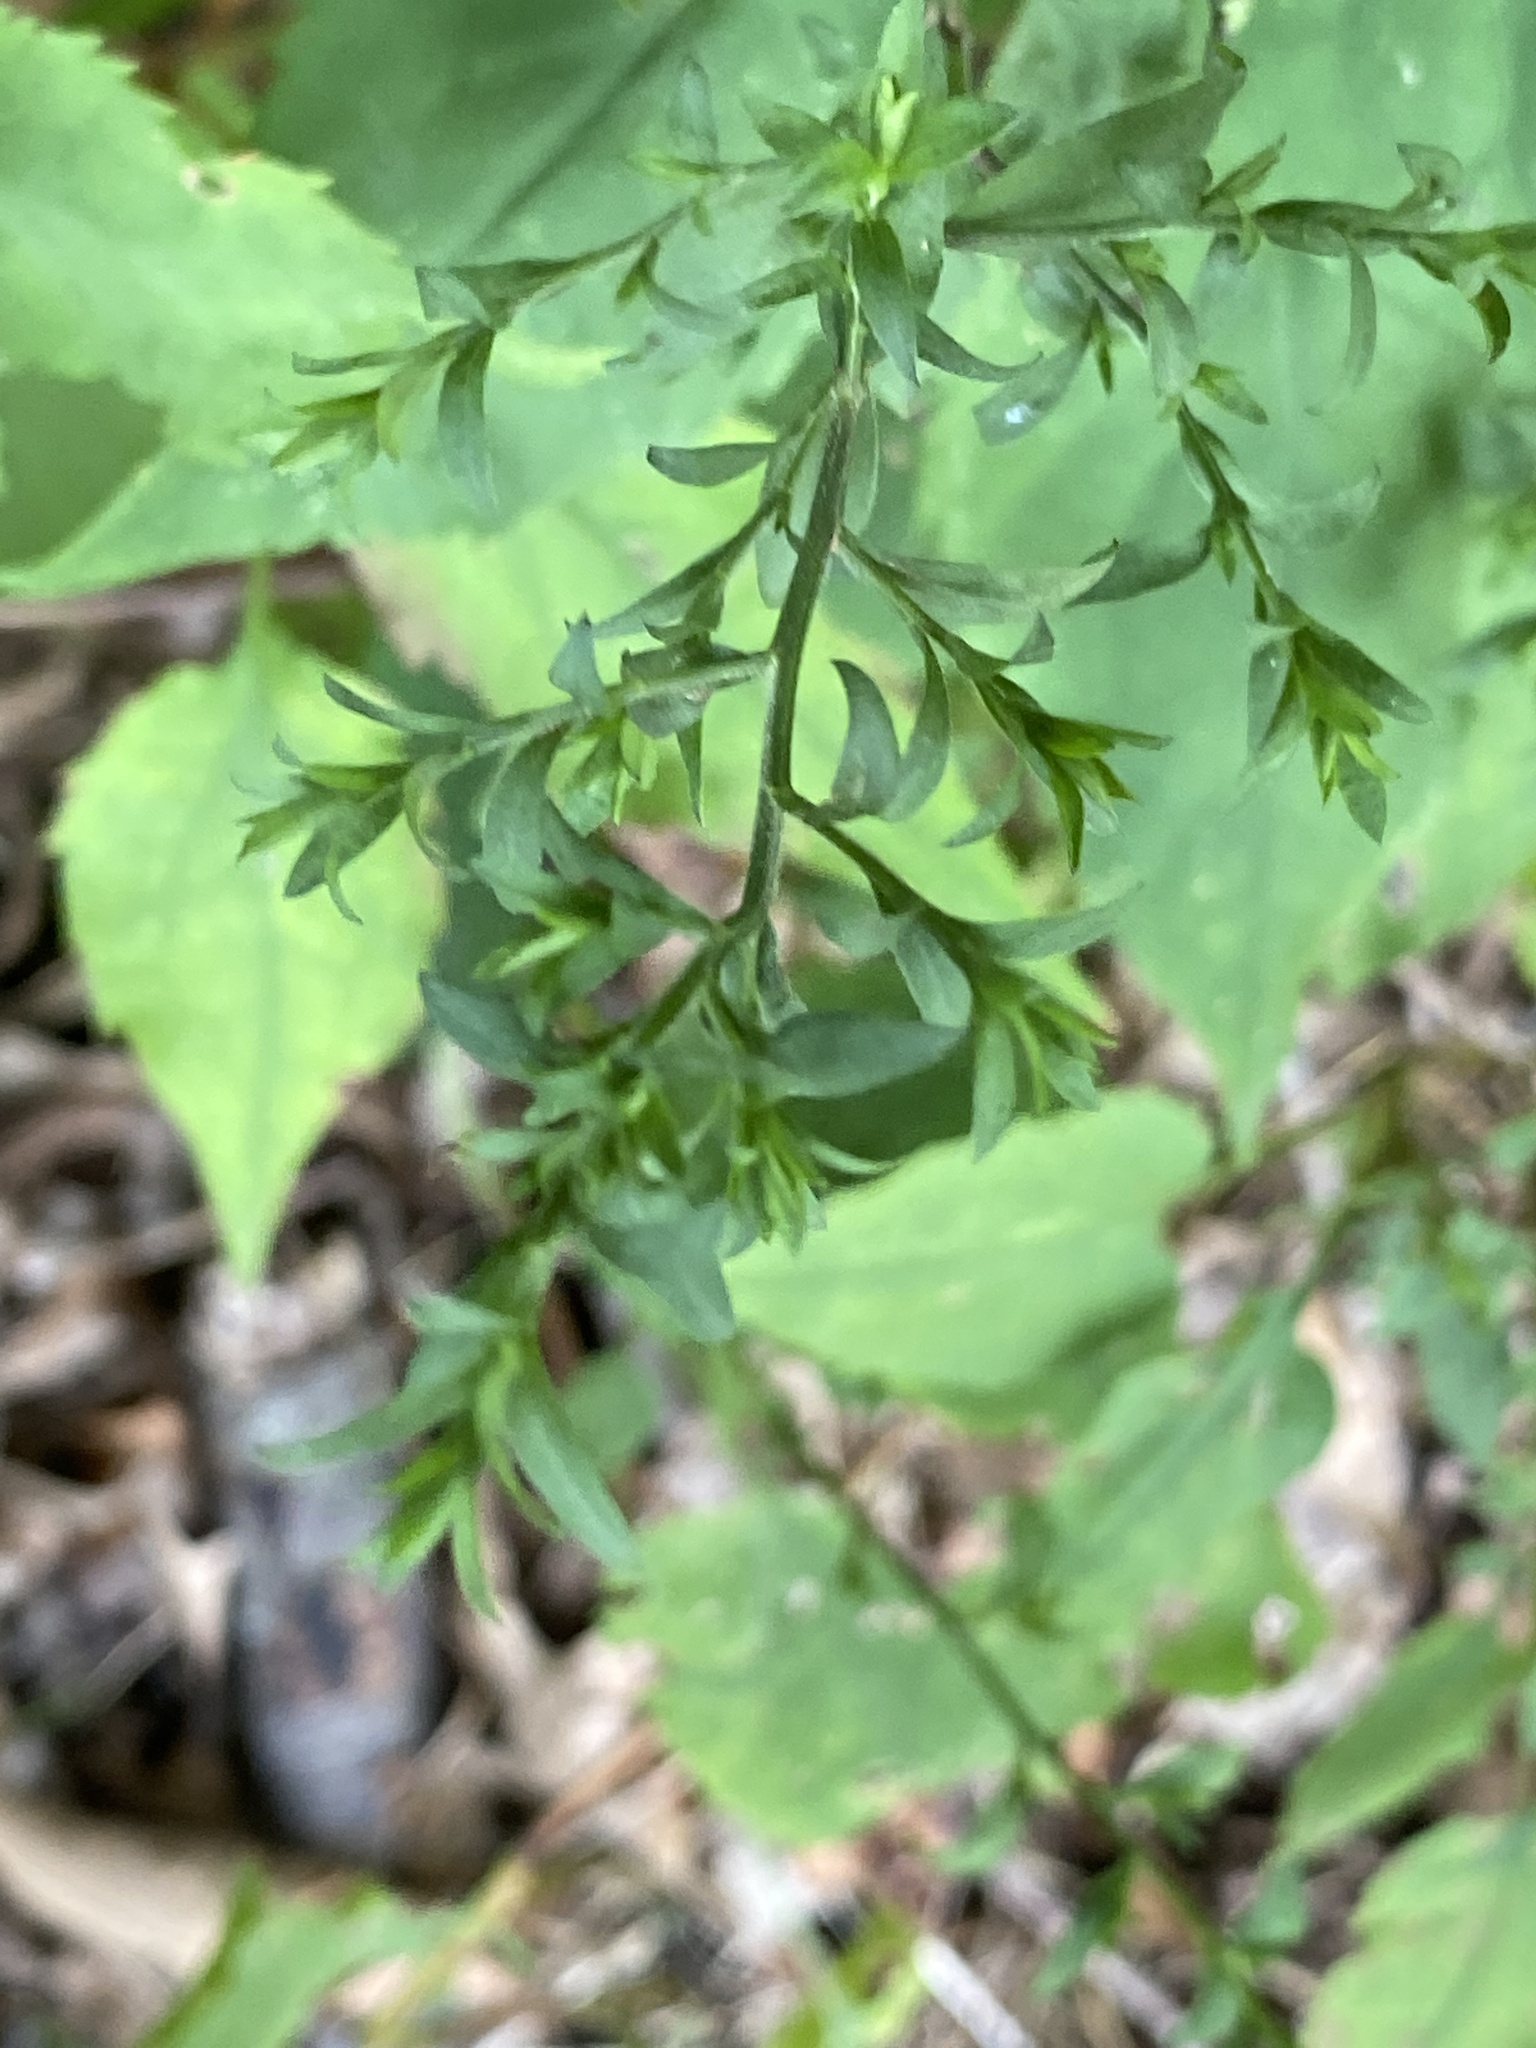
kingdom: Plantae
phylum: Tracheophyta
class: Magnoliopsida
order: Asterales
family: Asteraceae
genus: Symphyotrichum
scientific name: Symphyotrichum cordifolium
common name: Beeweed
